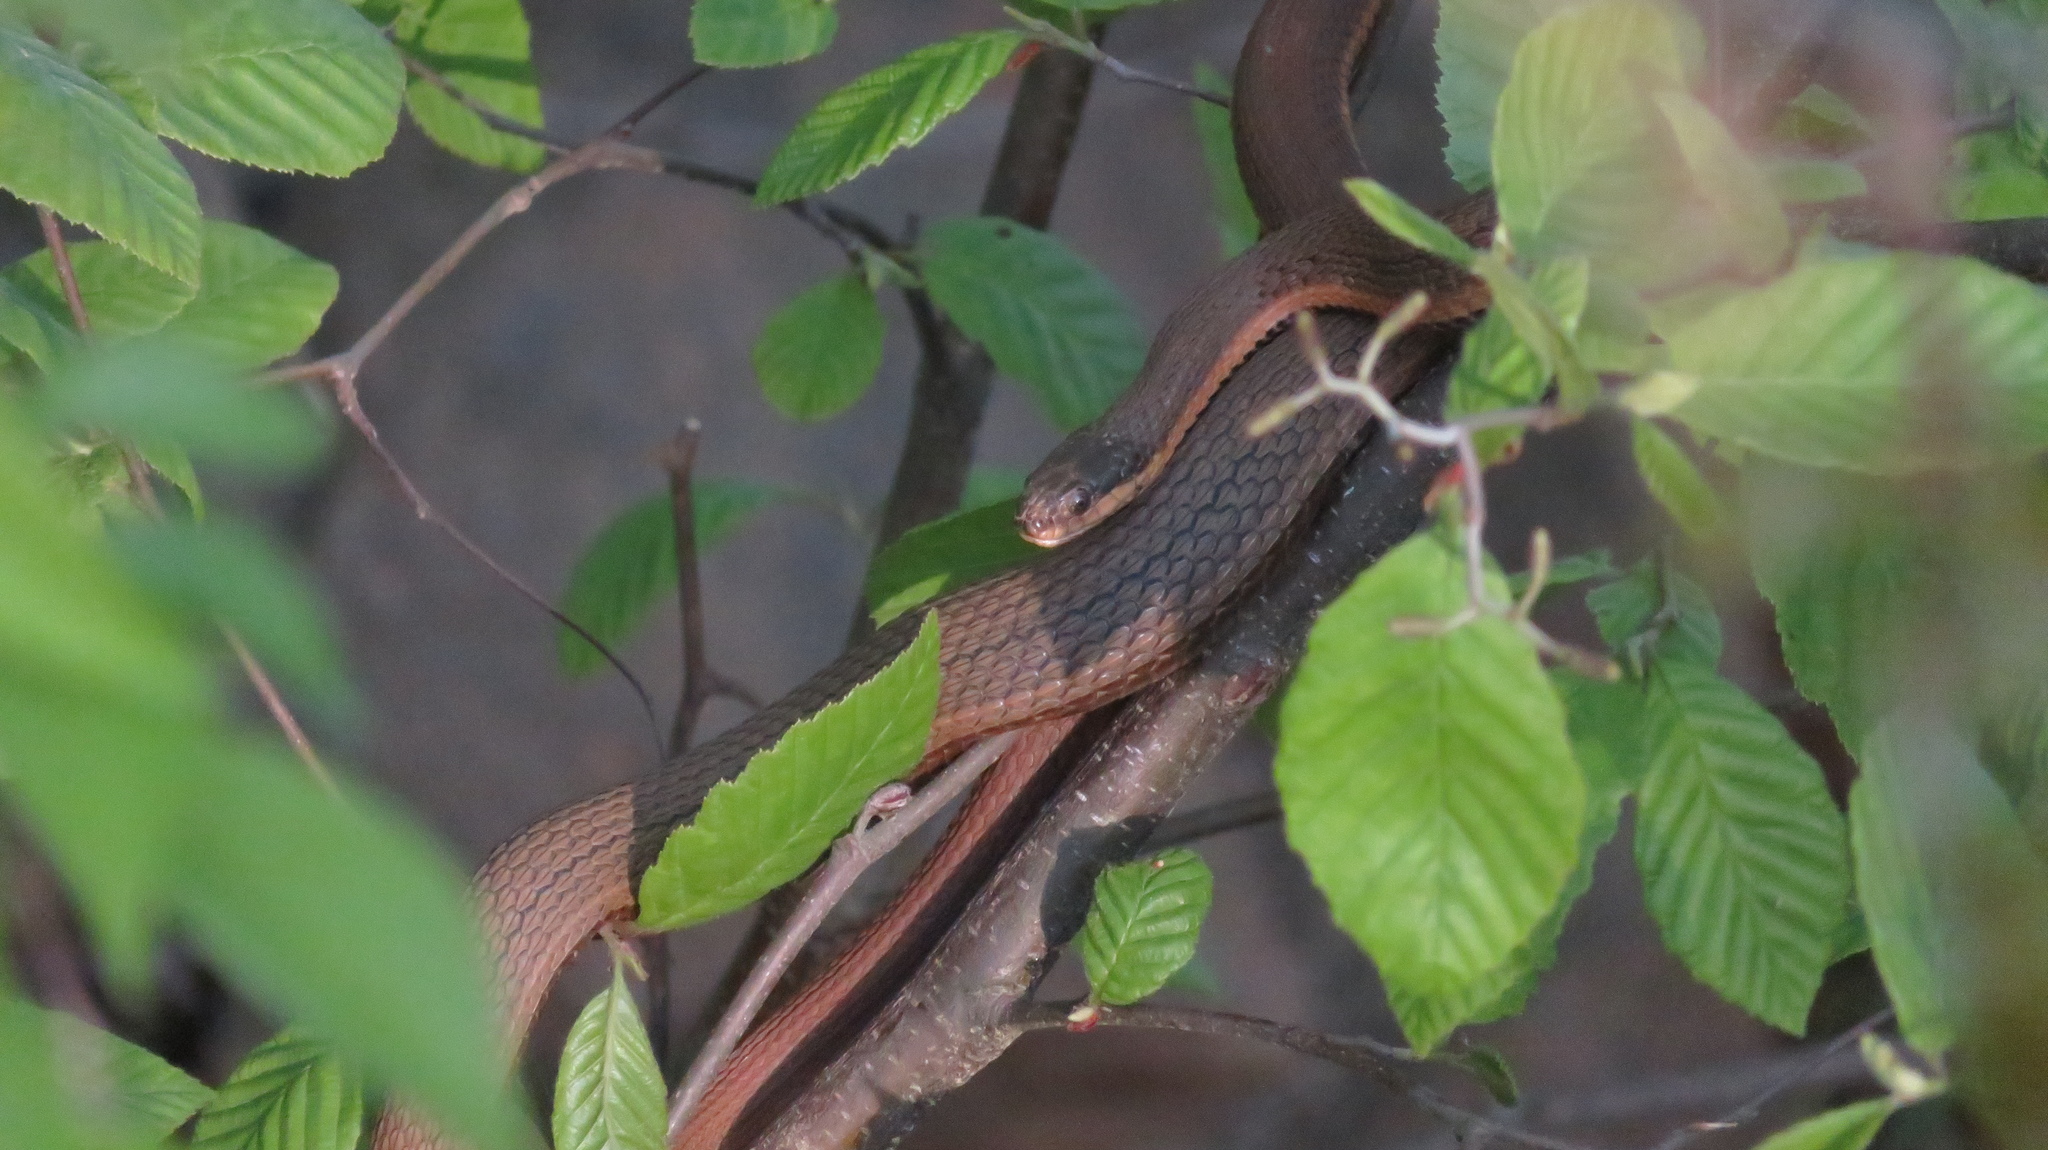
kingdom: Animalia
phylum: Chordata
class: Squamata
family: Colubridae
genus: Regina
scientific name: Regina septemvittata
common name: Queen snake
